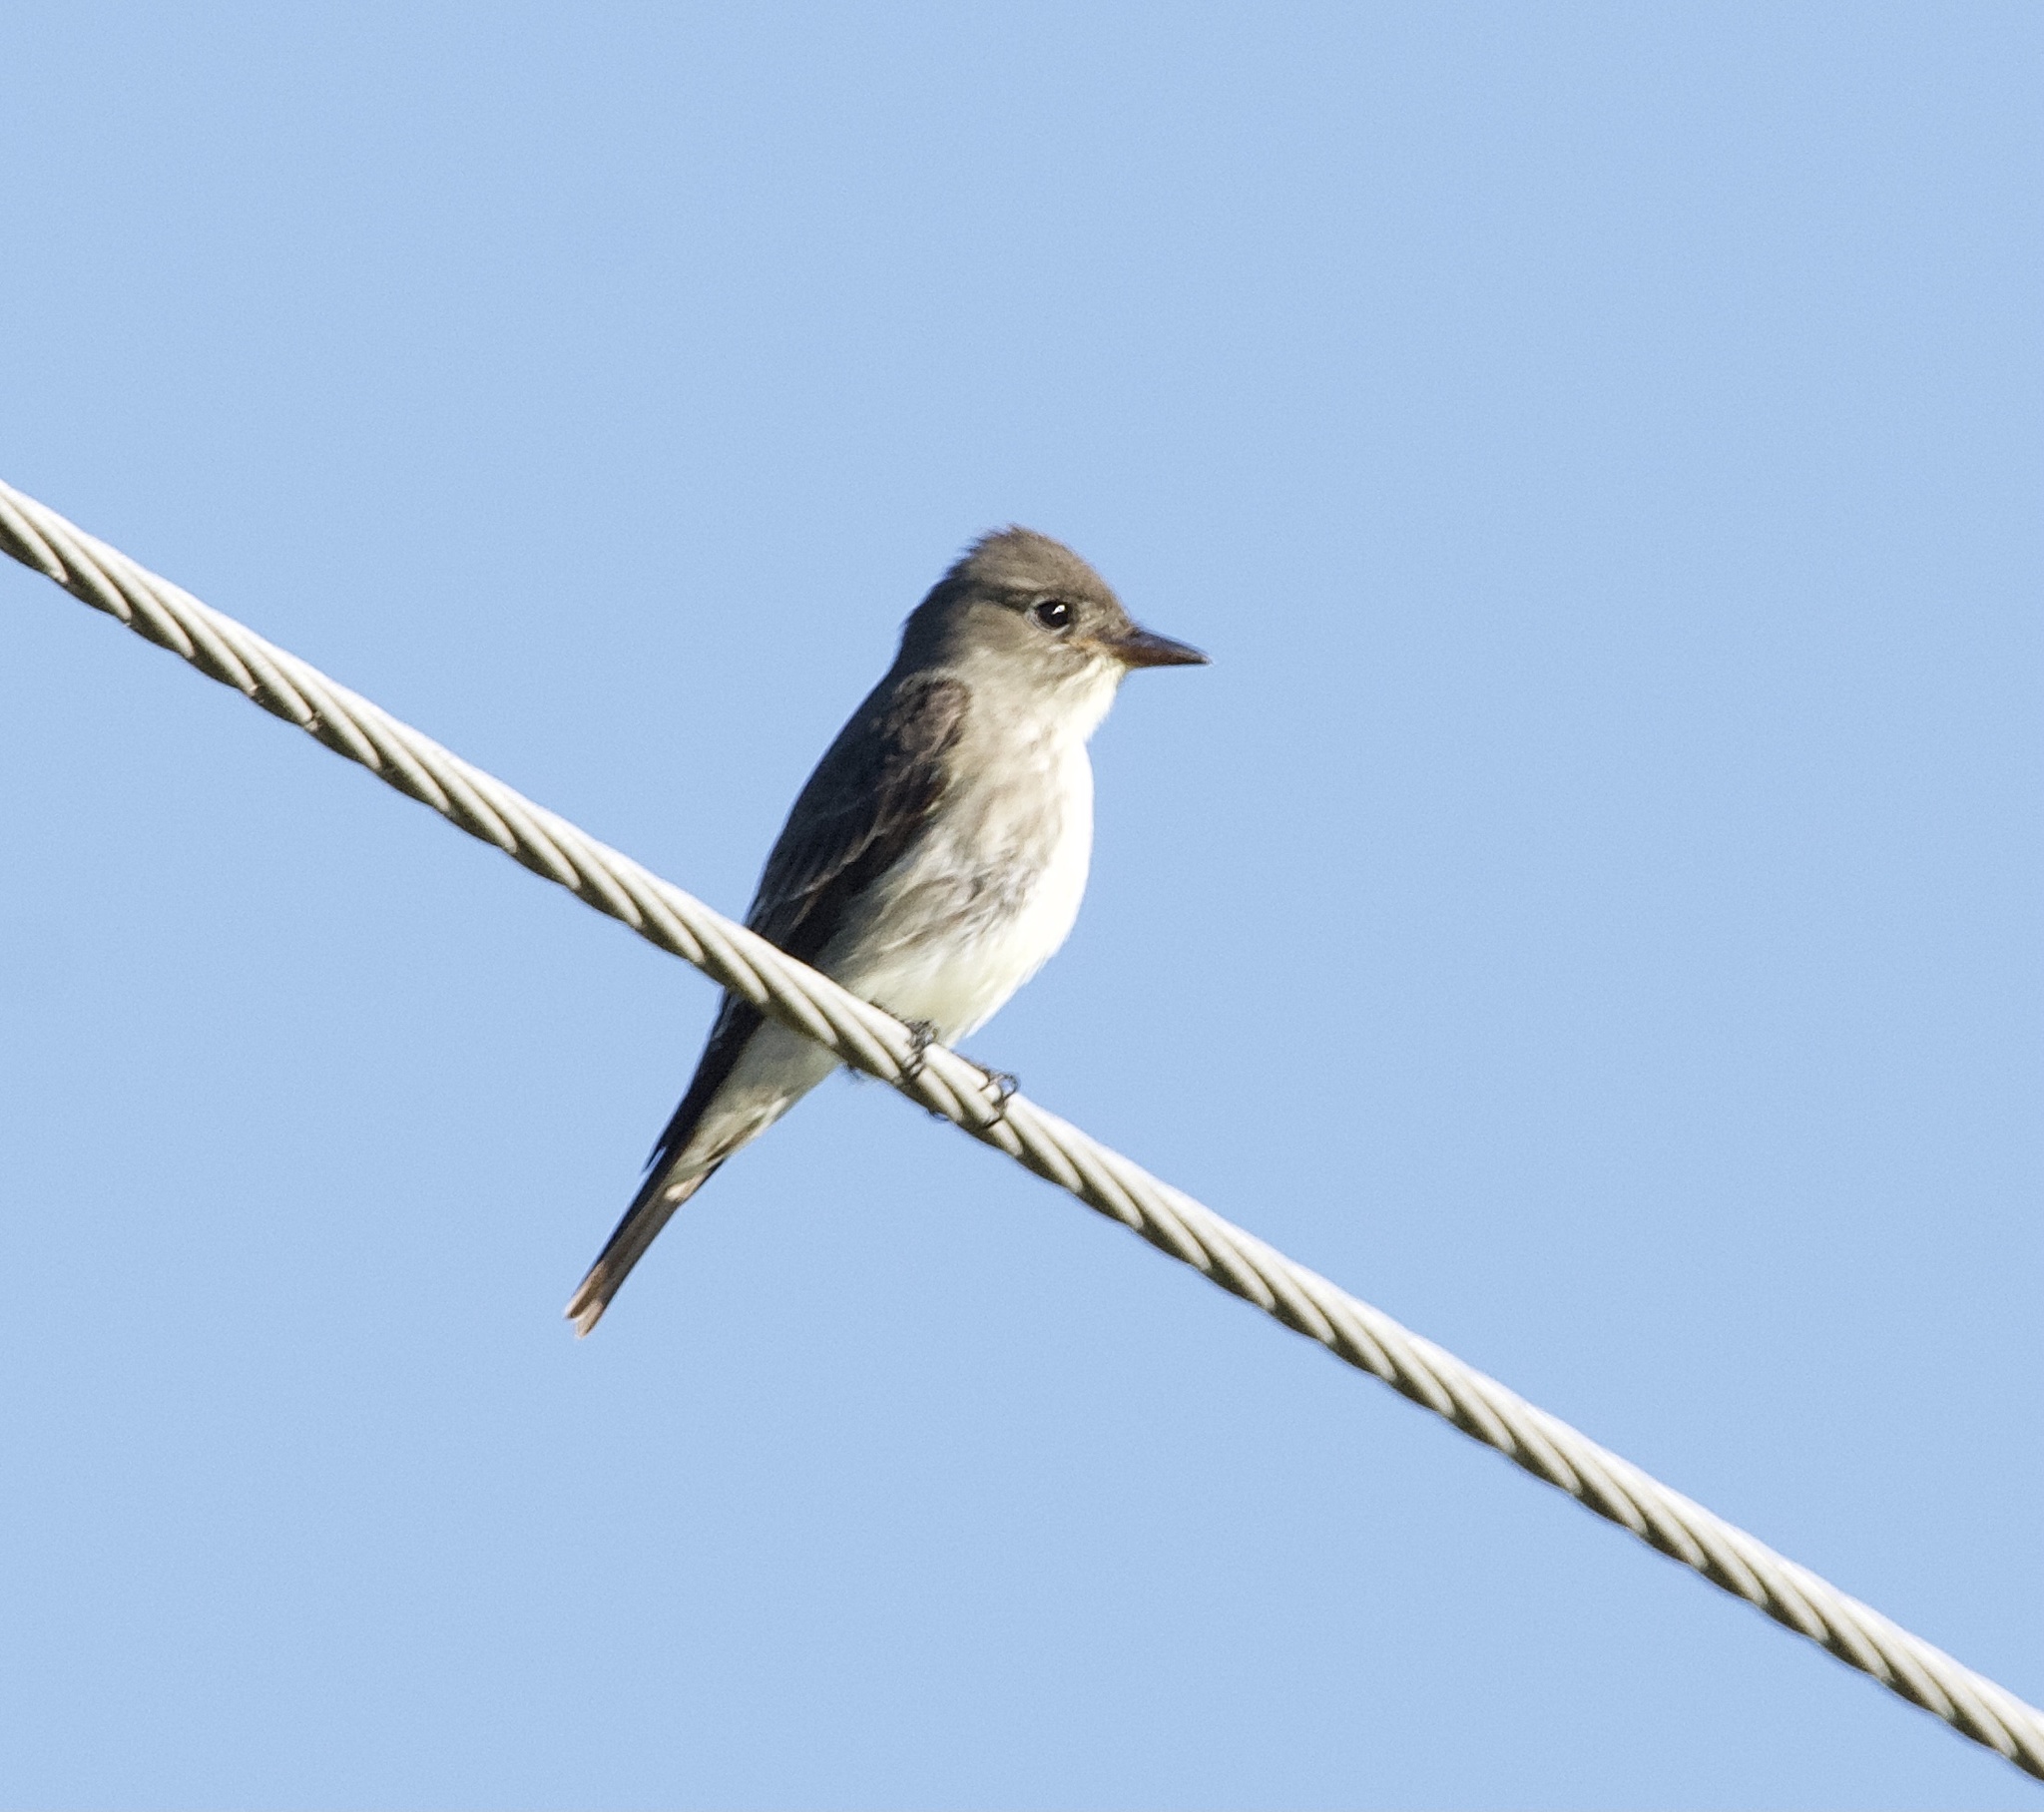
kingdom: Animalia
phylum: Chordata
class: Aves
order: Passeriformes
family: Tyrannidae
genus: Contopus
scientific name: Contopus cooperi
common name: Olive-sided flycatcher
